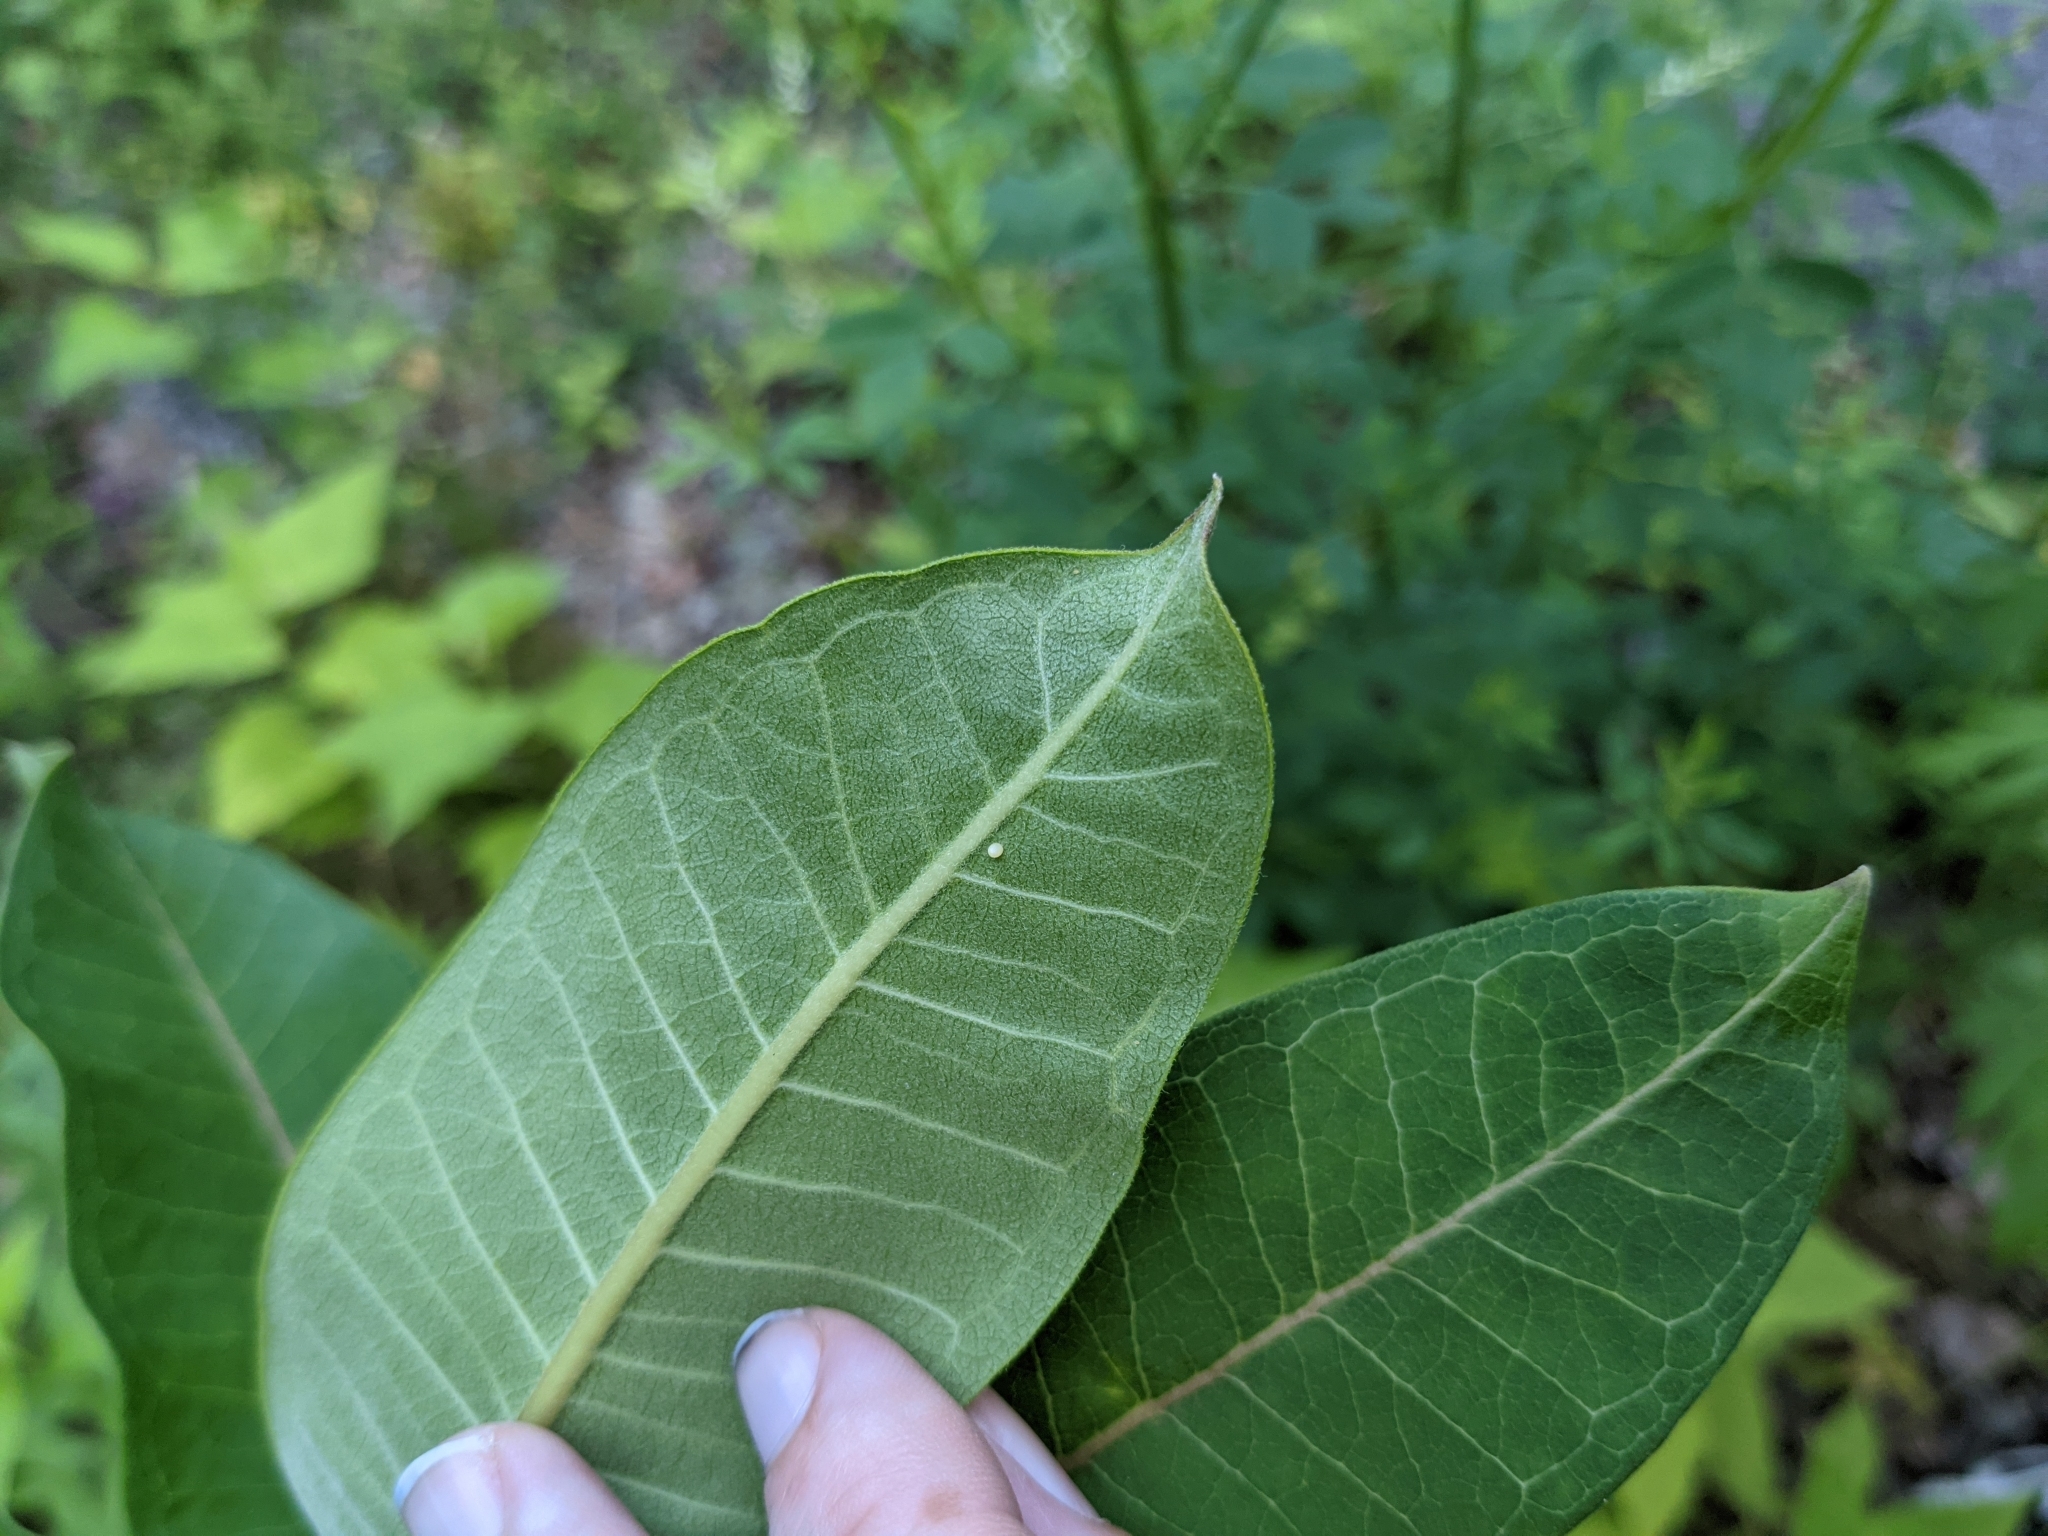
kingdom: Animalia
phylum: Arthropoda
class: Insecta
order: Lepidoptera
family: Nymphalidae
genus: Danaus
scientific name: Danaus plexippus
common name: Monarch
